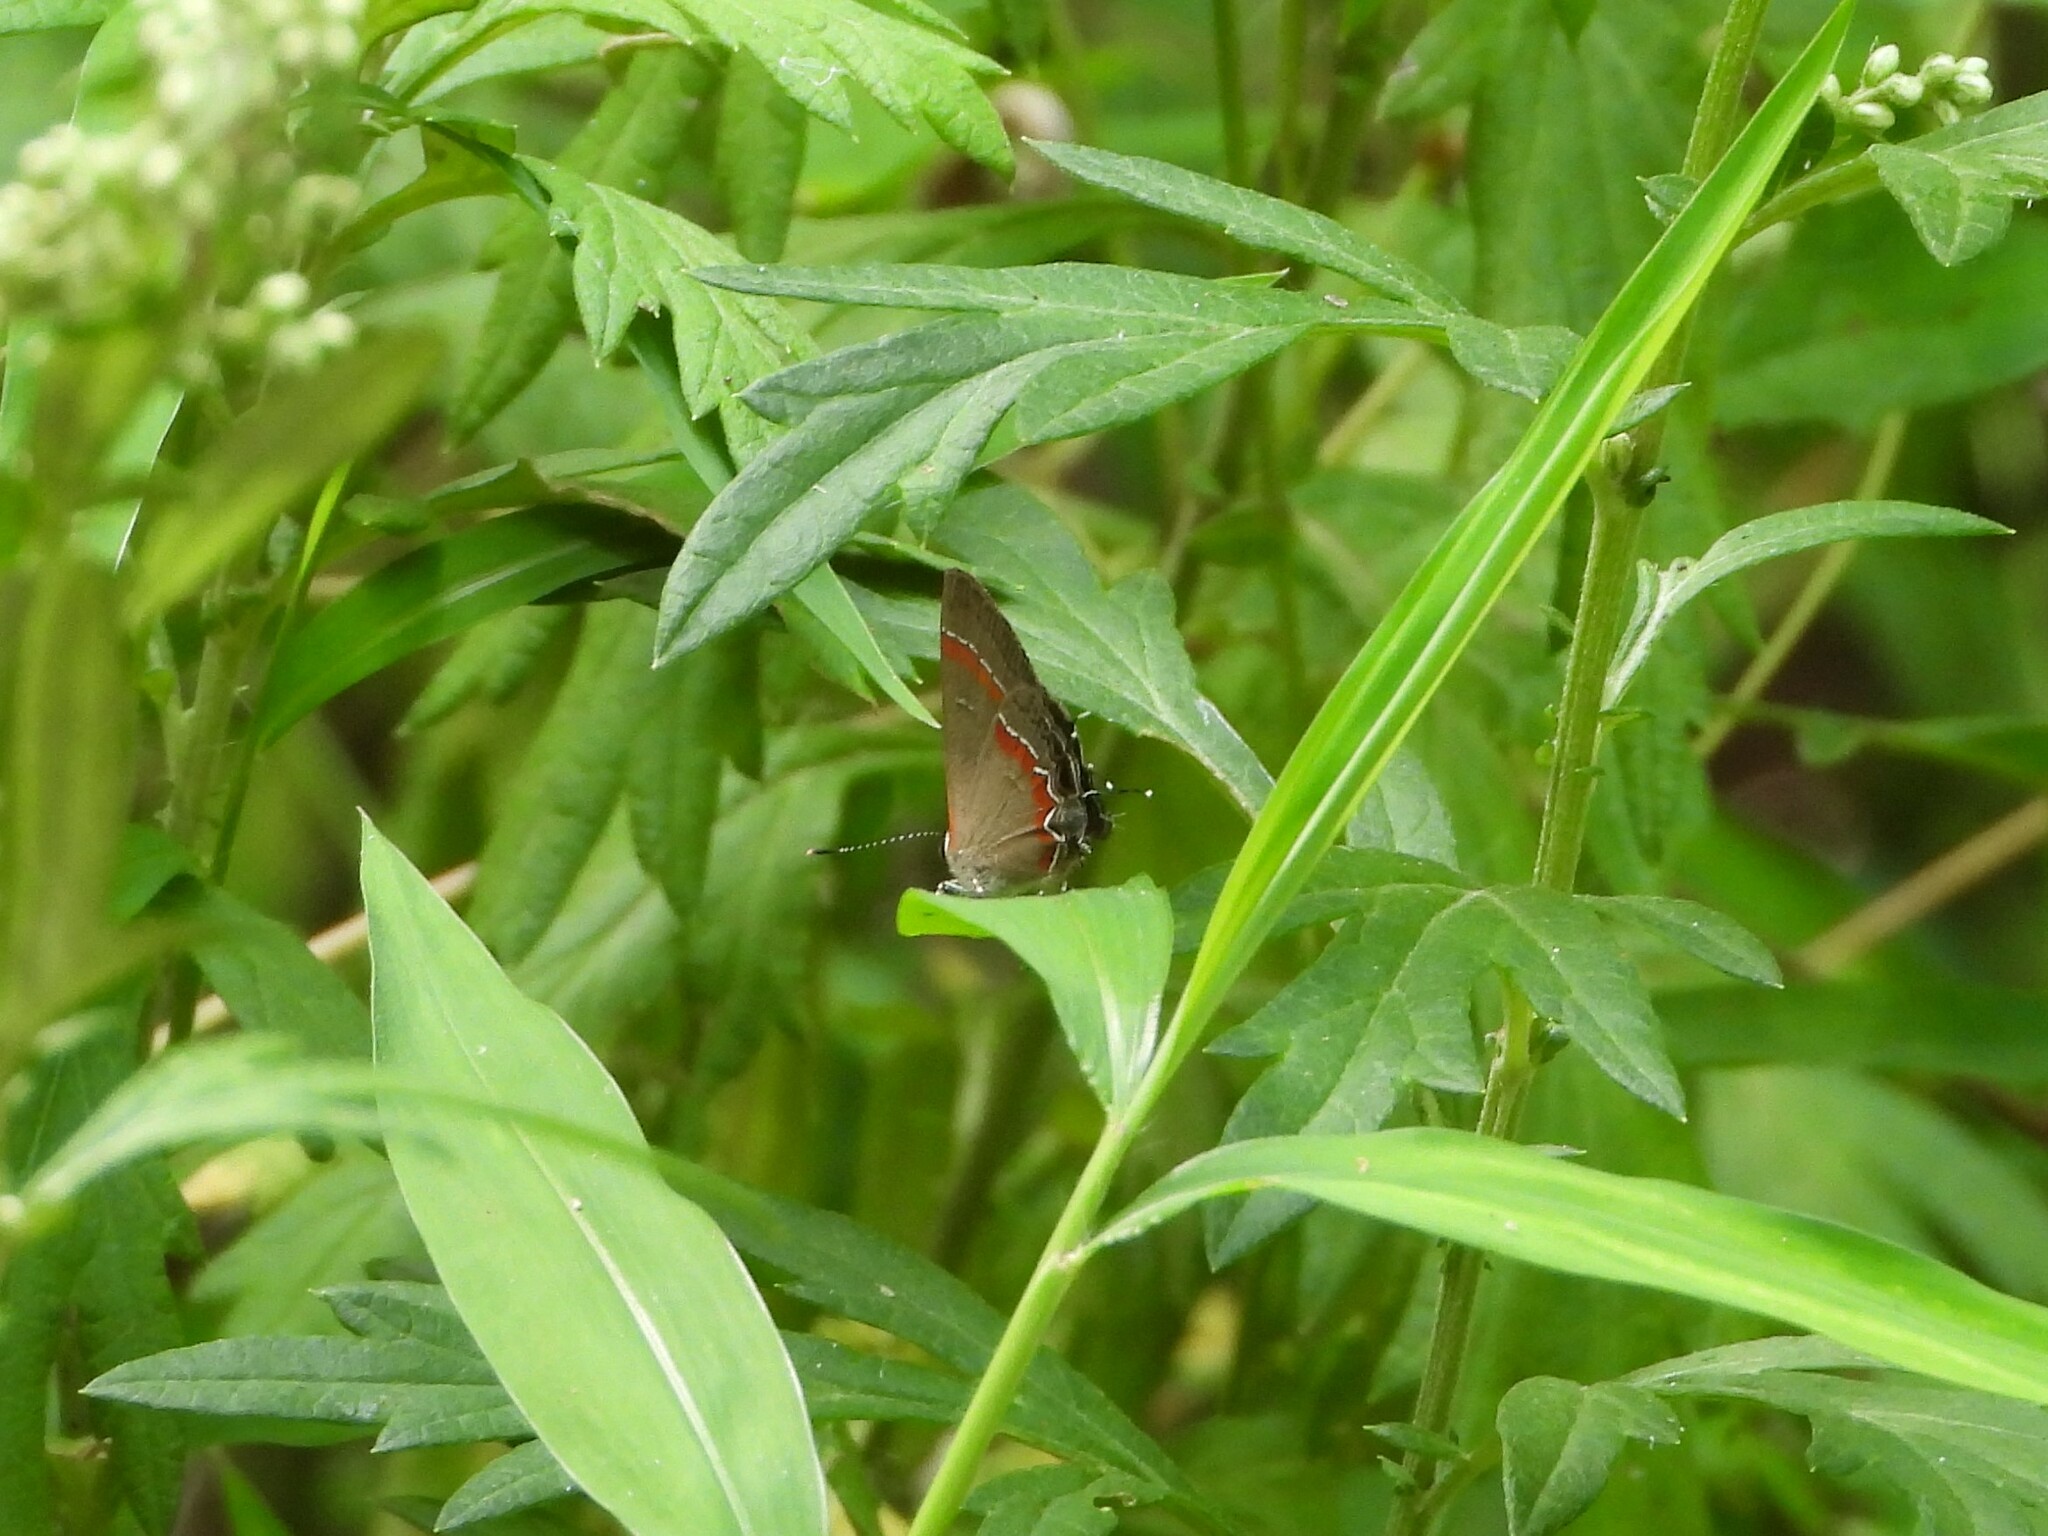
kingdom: Animalia
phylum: Arthropoda
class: Insecta
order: Lepidoptera
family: Lycaenidae
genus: Calycopis
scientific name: Calycopis cecrops
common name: Red-banded hairstreak
